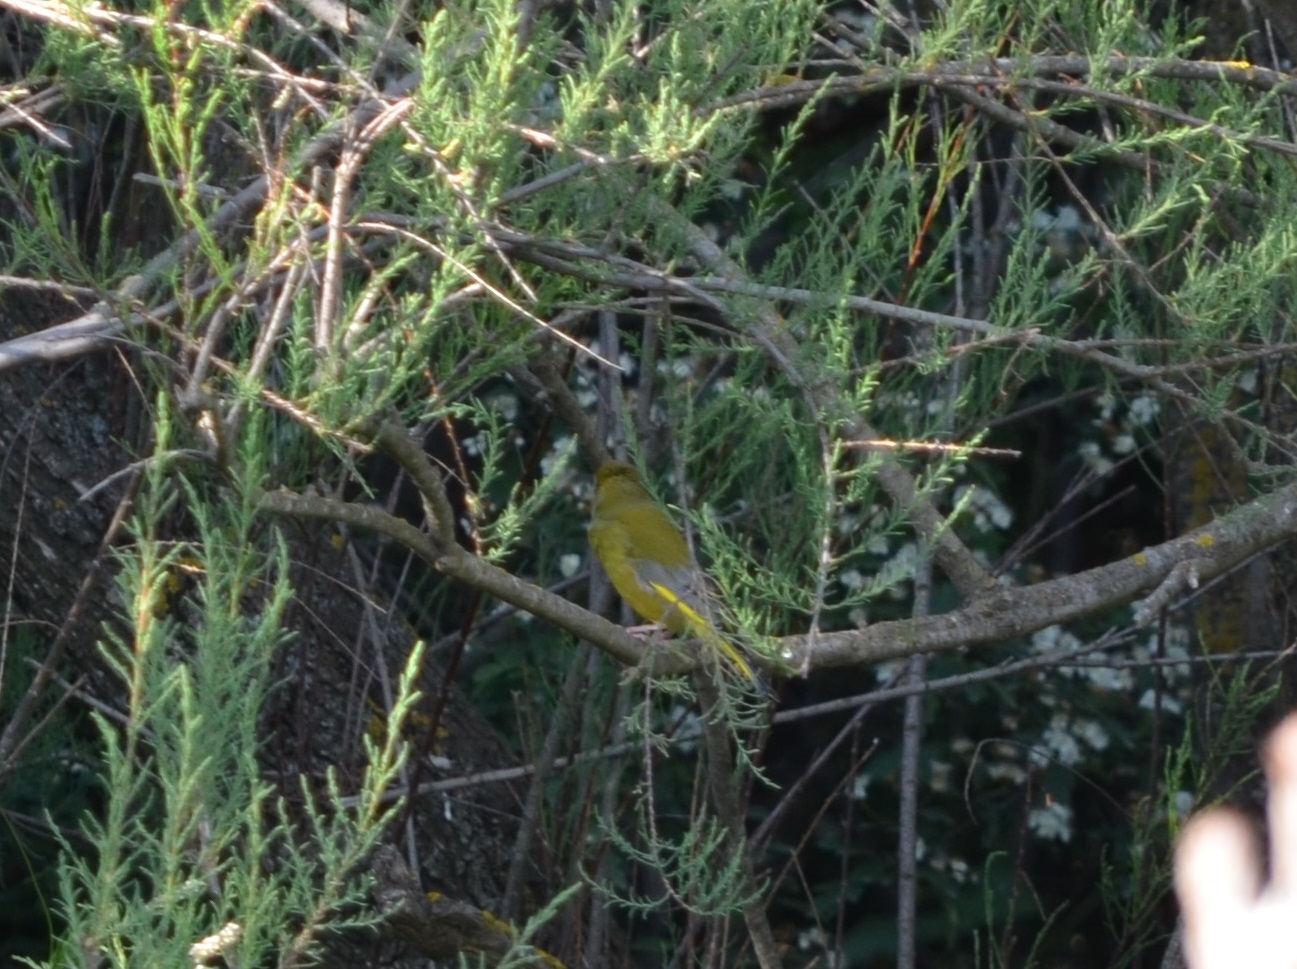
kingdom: Plantae
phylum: Tracheophyta
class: Liliopsida
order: Poales
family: Poaceae
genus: Chloris
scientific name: Chloris chloris
